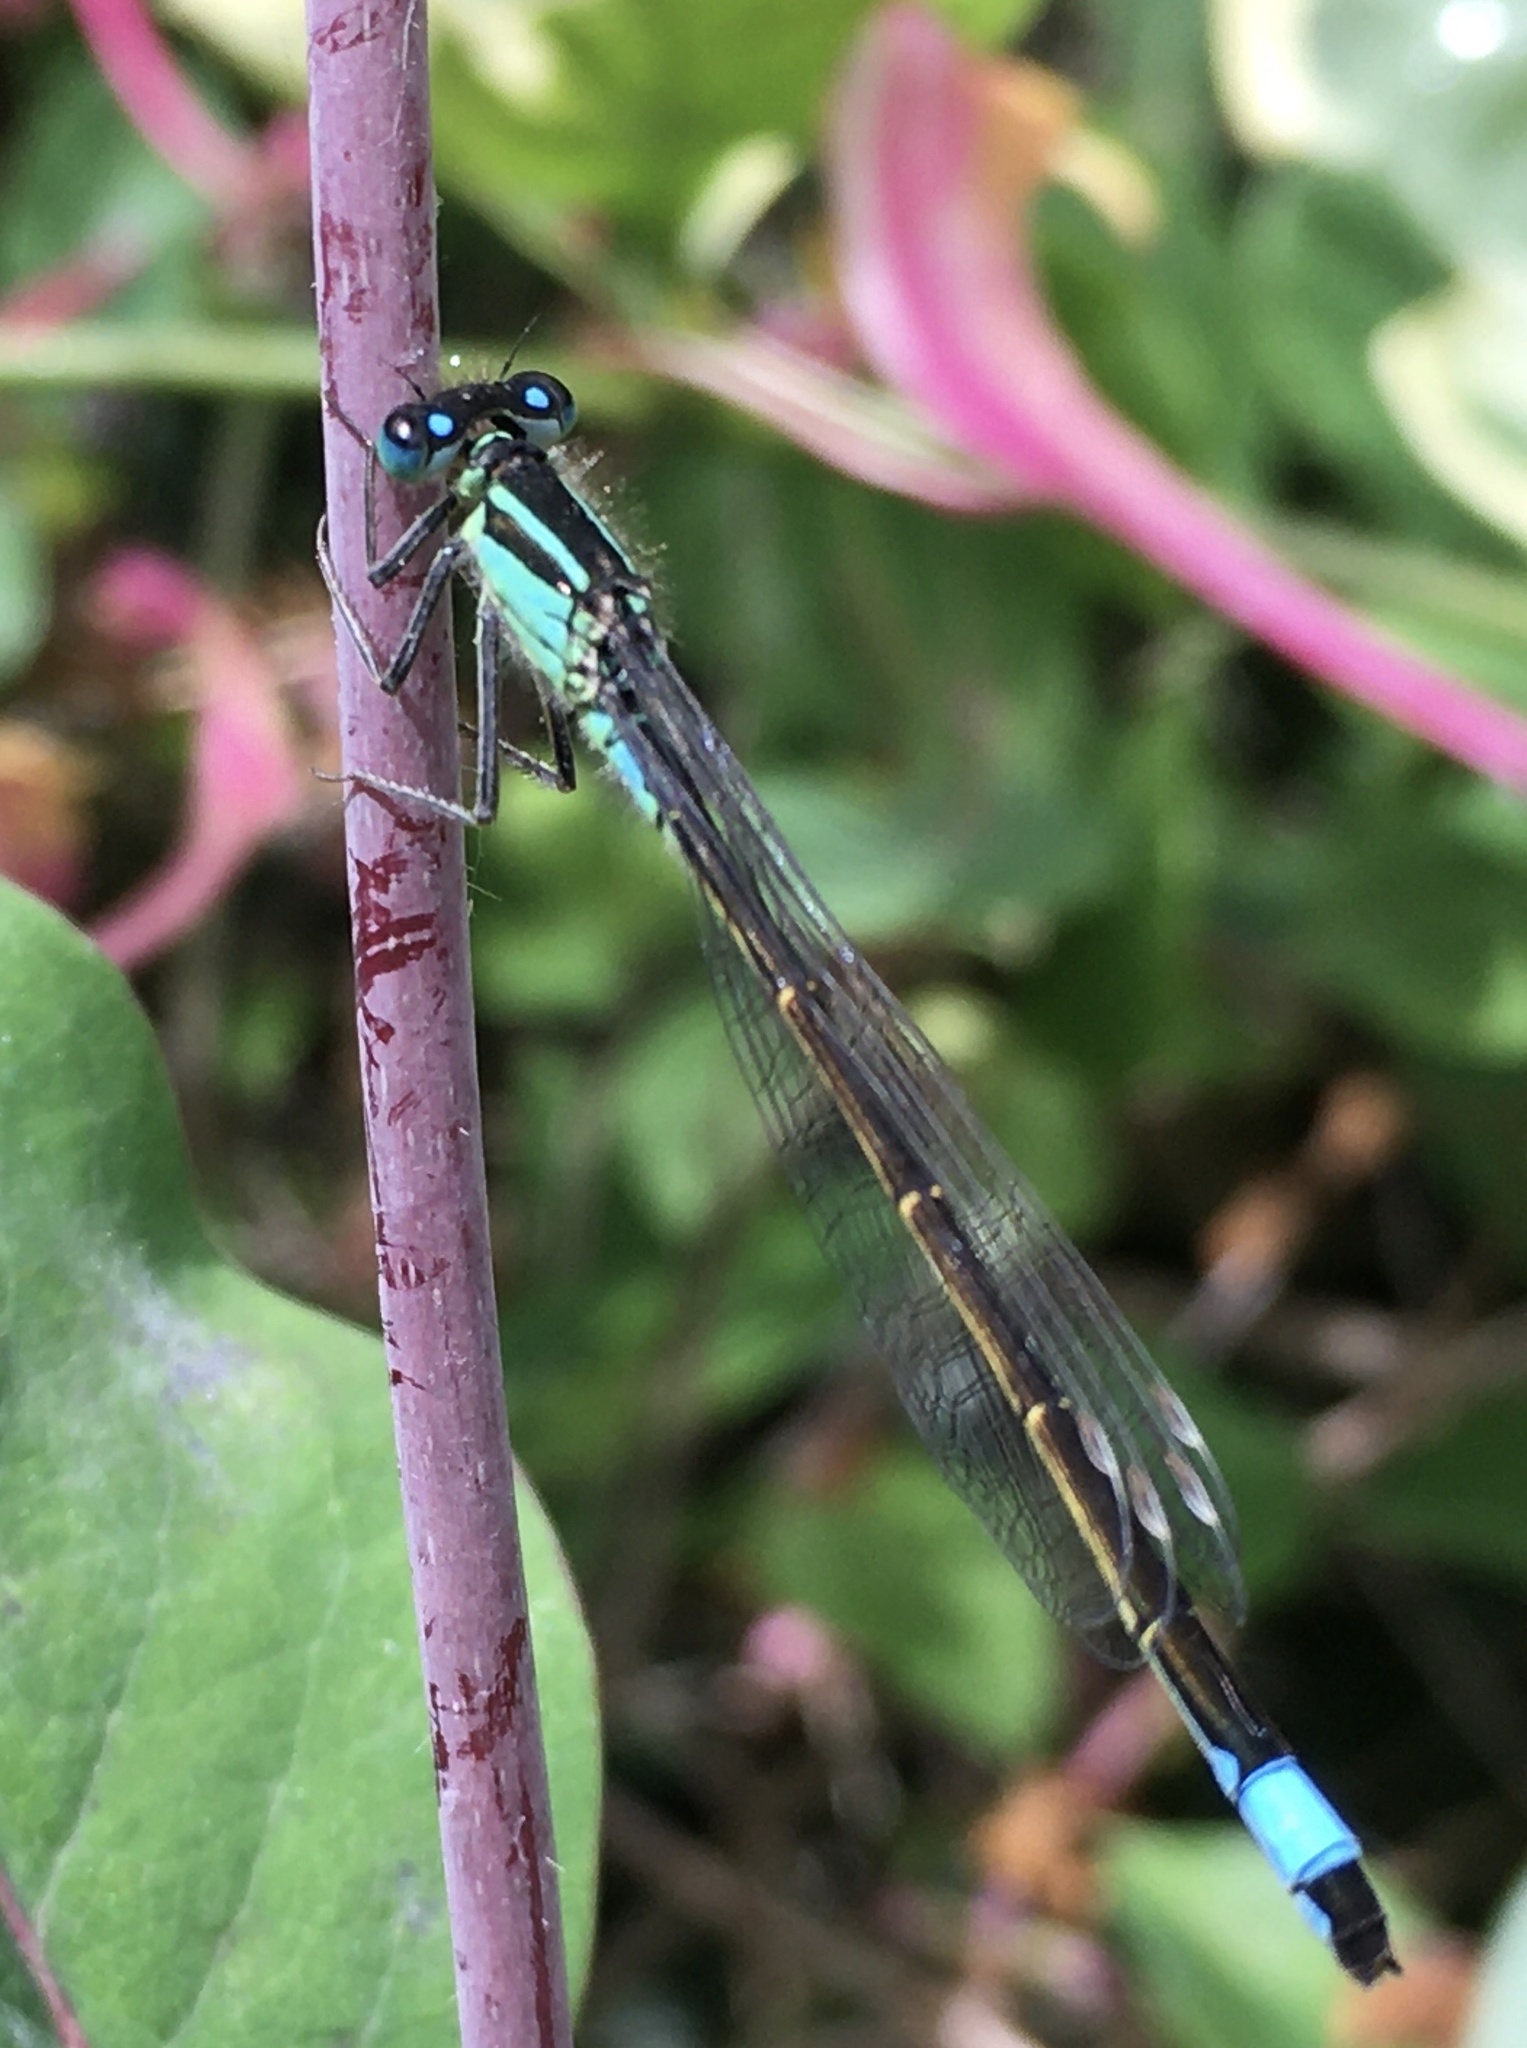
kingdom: Animalia
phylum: Arthropoda
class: Insecta
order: Odonata
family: Coenagrionidae
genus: Ischnura
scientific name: Ischnura elegans
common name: Blue-tailed damselfly
